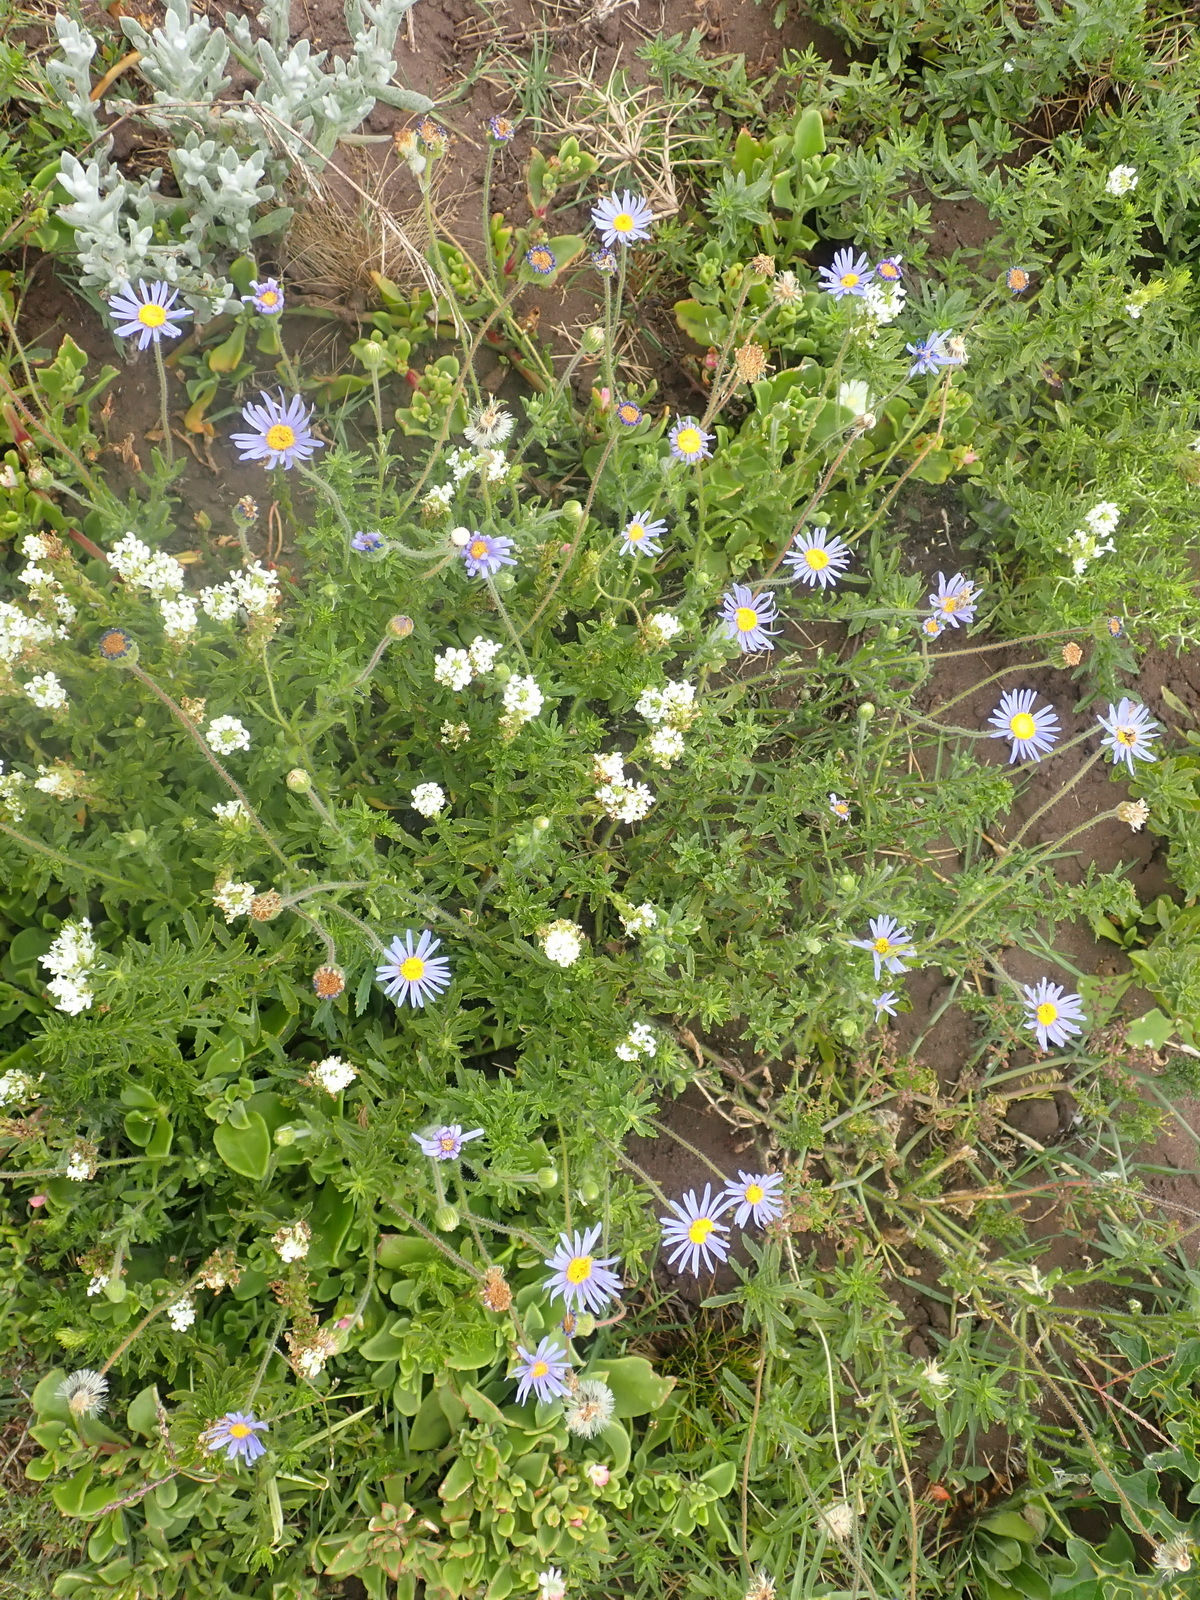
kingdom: Plantae
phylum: Tracheophyta
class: Magnoliopsida
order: Asterales
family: Asteraceae
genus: Felicia
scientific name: Felicia amoena
